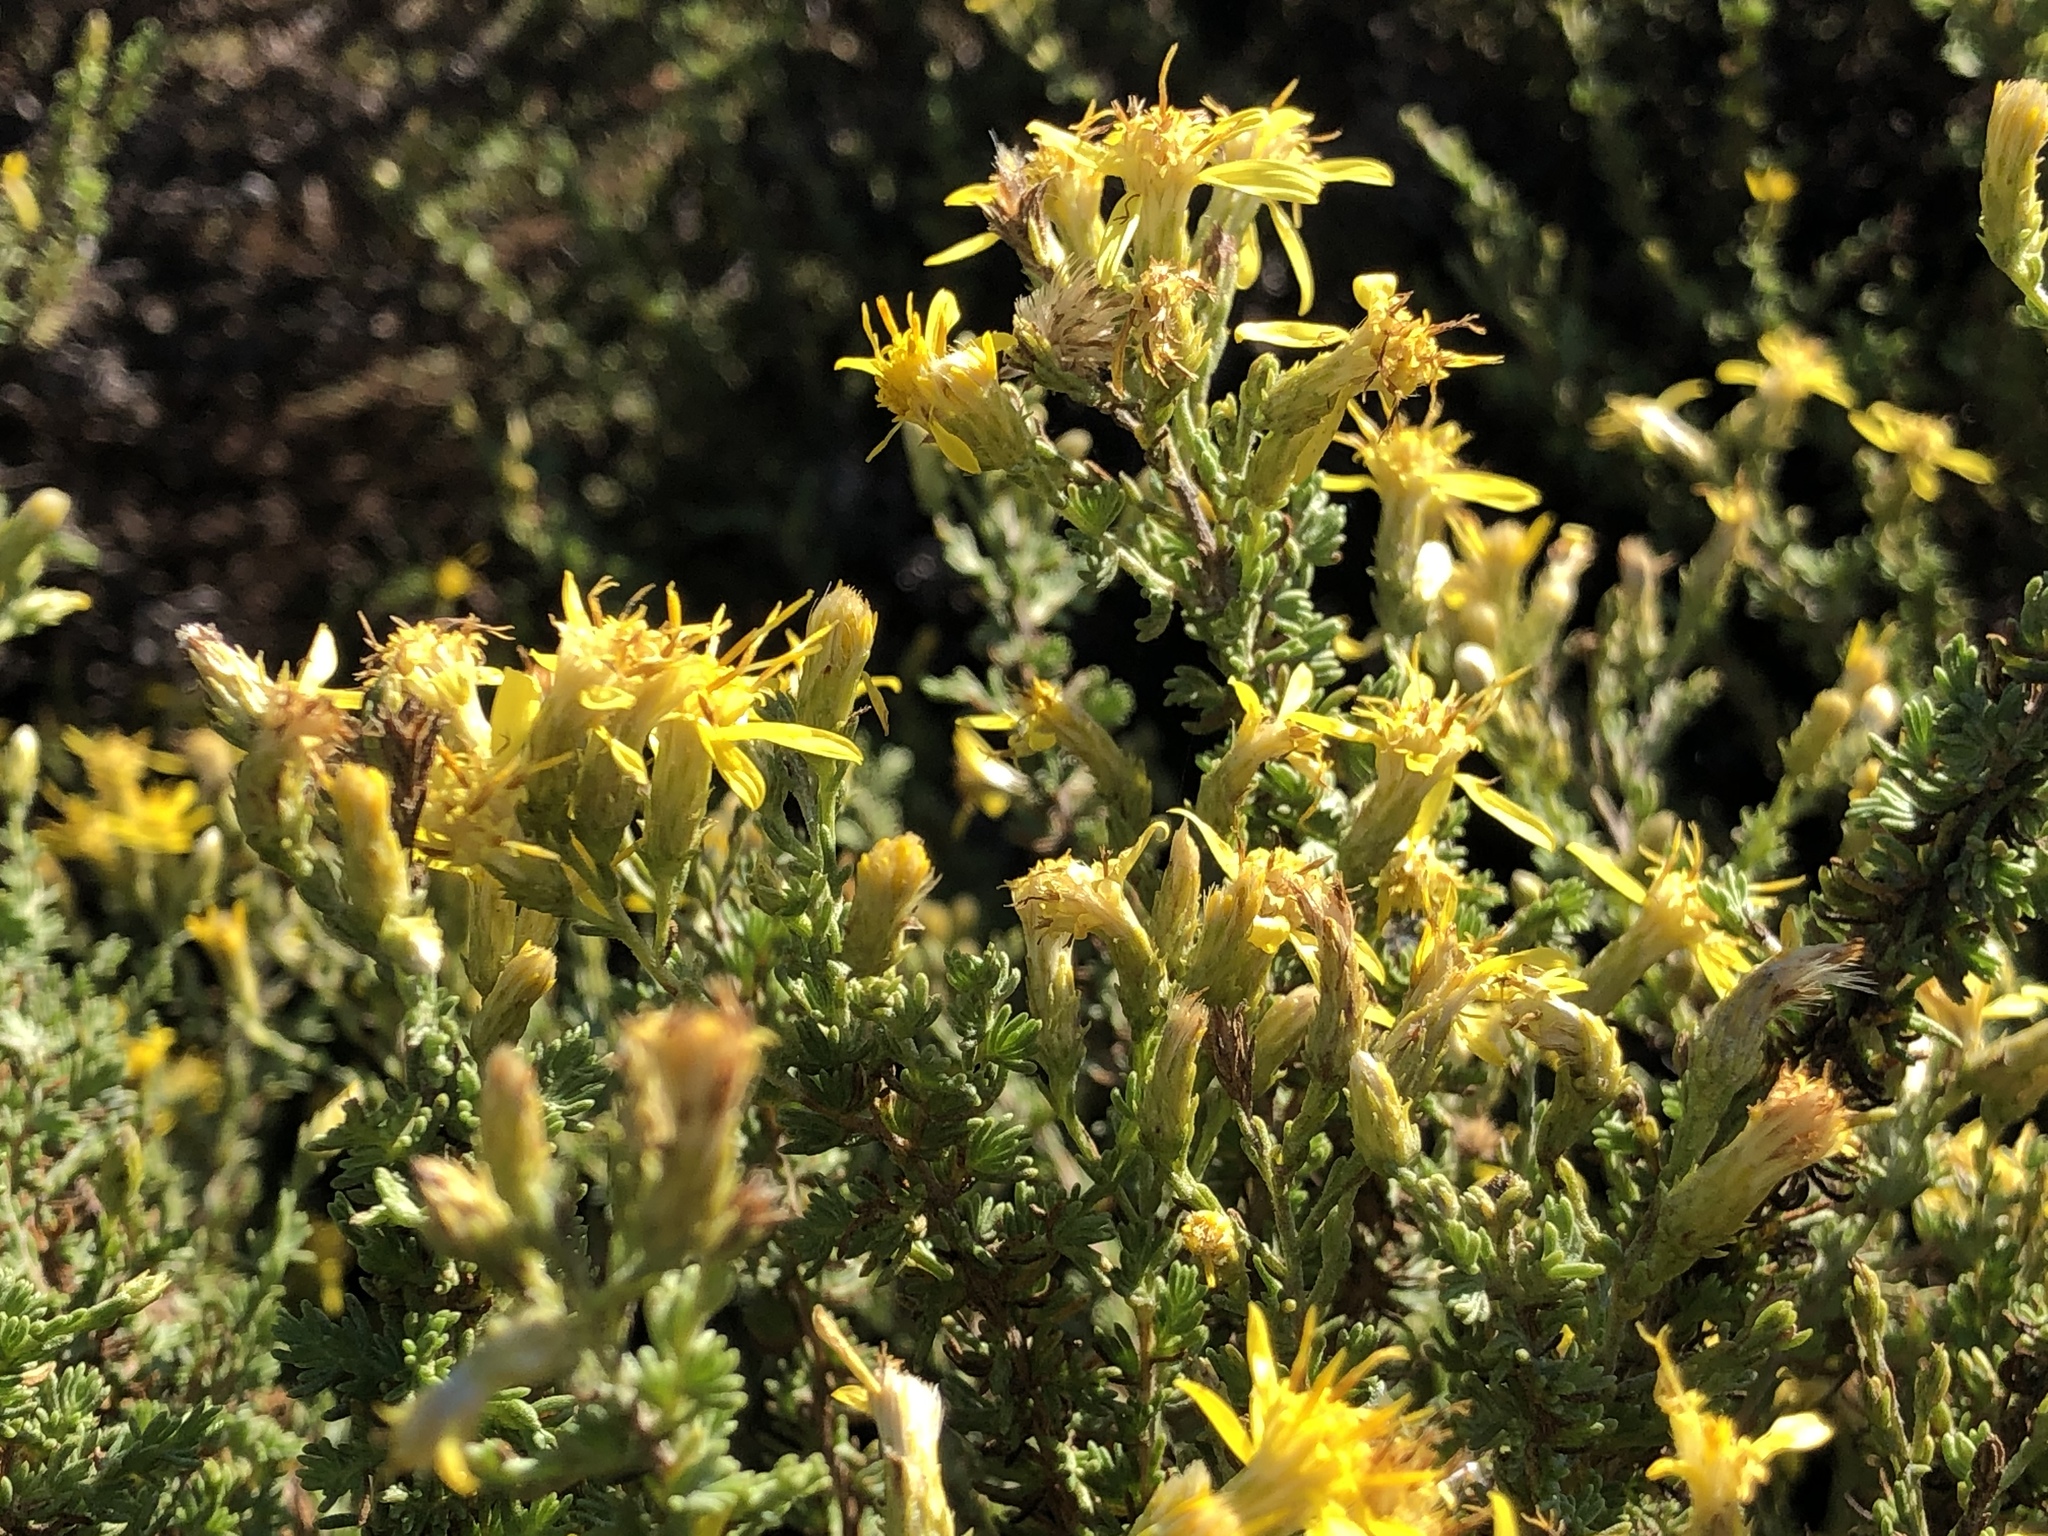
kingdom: Plantae
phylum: Tracheophyta
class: Magnoliopsida
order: Asterales
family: Asteraceae
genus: Ericameria
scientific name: Ericameria ericoides
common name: California goldenbush
